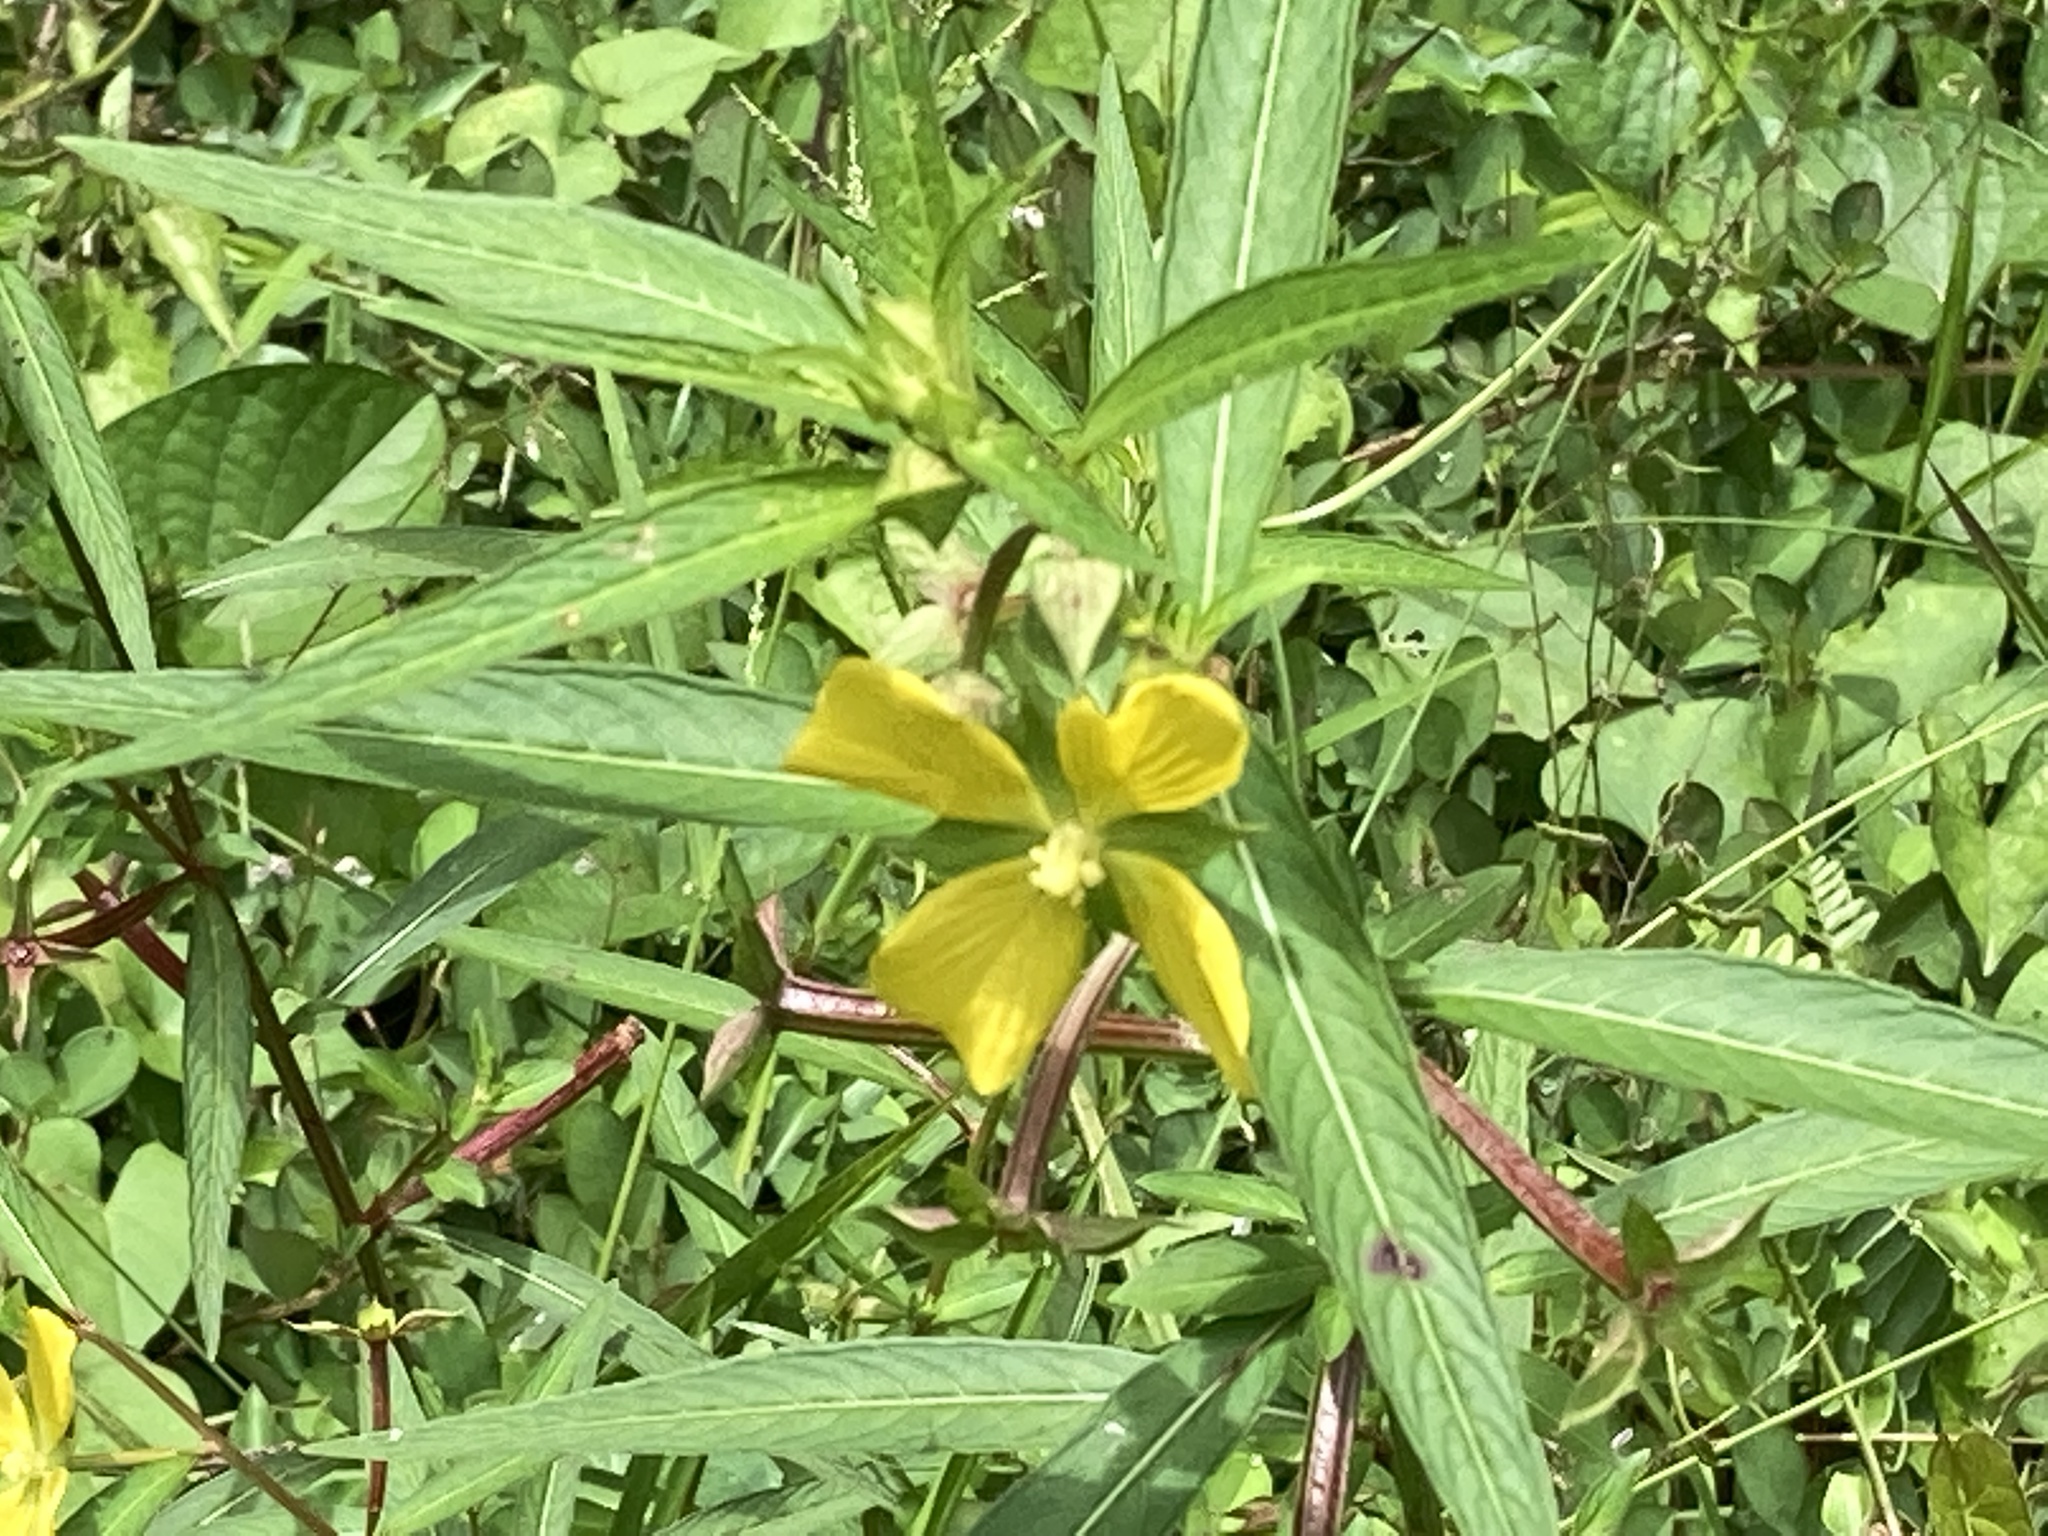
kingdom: Plantae
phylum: Tracheophyta
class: Magnoliopsida
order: Myrtales
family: Onagraceae
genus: Ludwigia
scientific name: Ludwigia octovalvis
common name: Water-primrose
